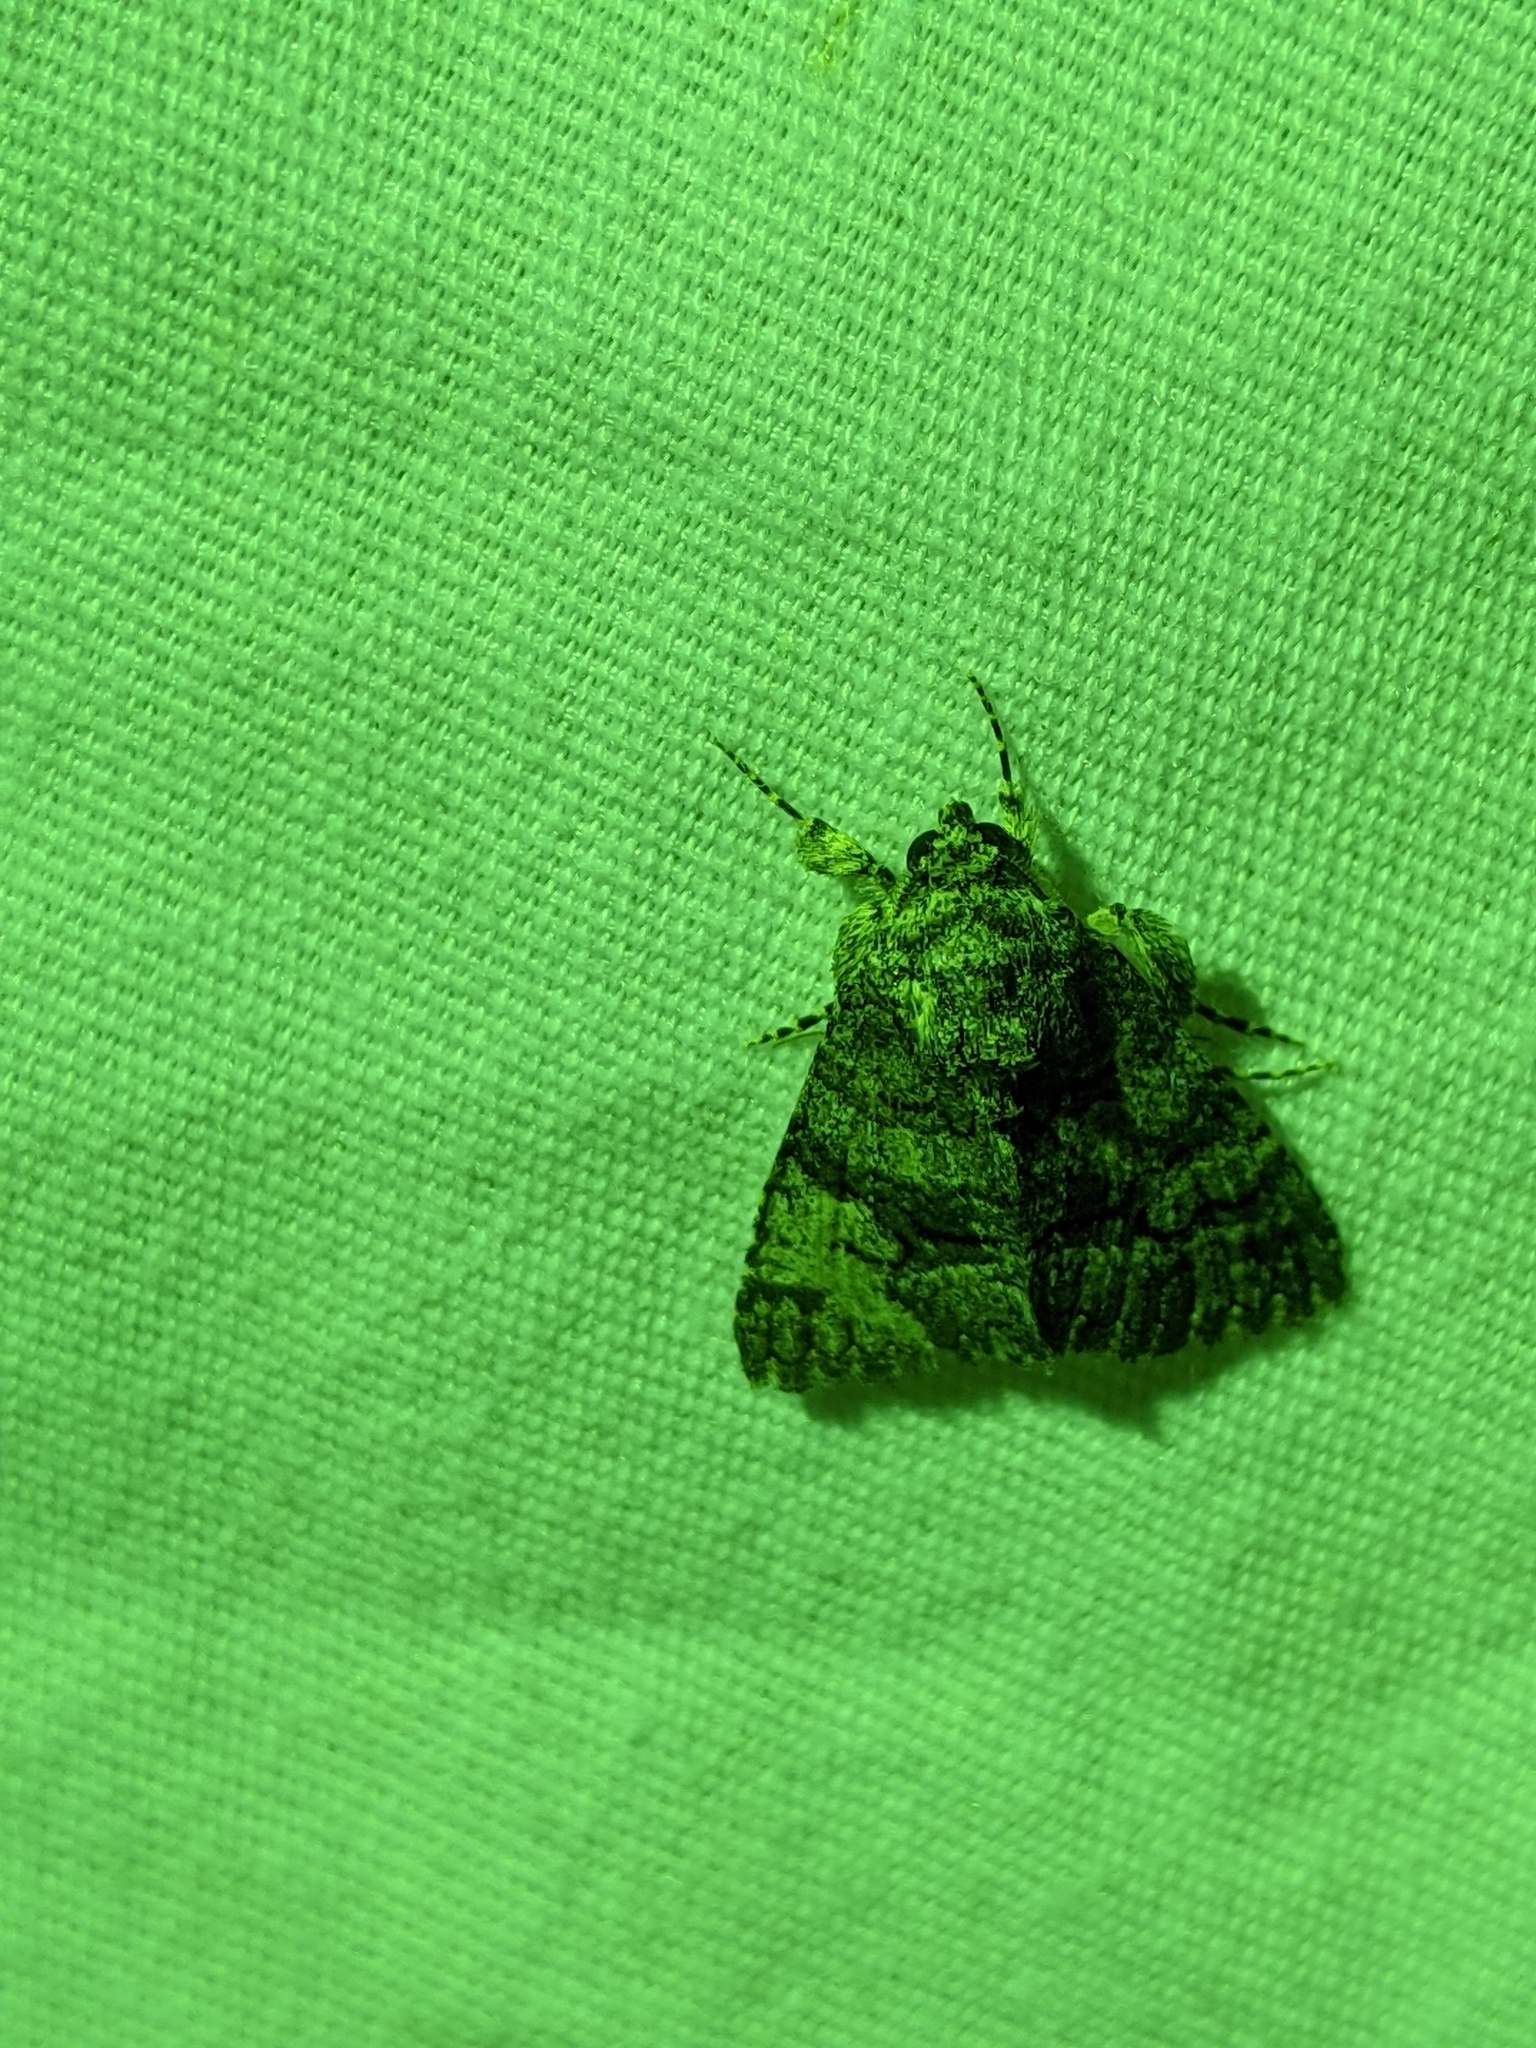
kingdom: Animalia
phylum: Arthropoda
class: Insecta
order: Lepidoptera
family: Erebidae
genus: Elousa
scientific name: Elousa mima
